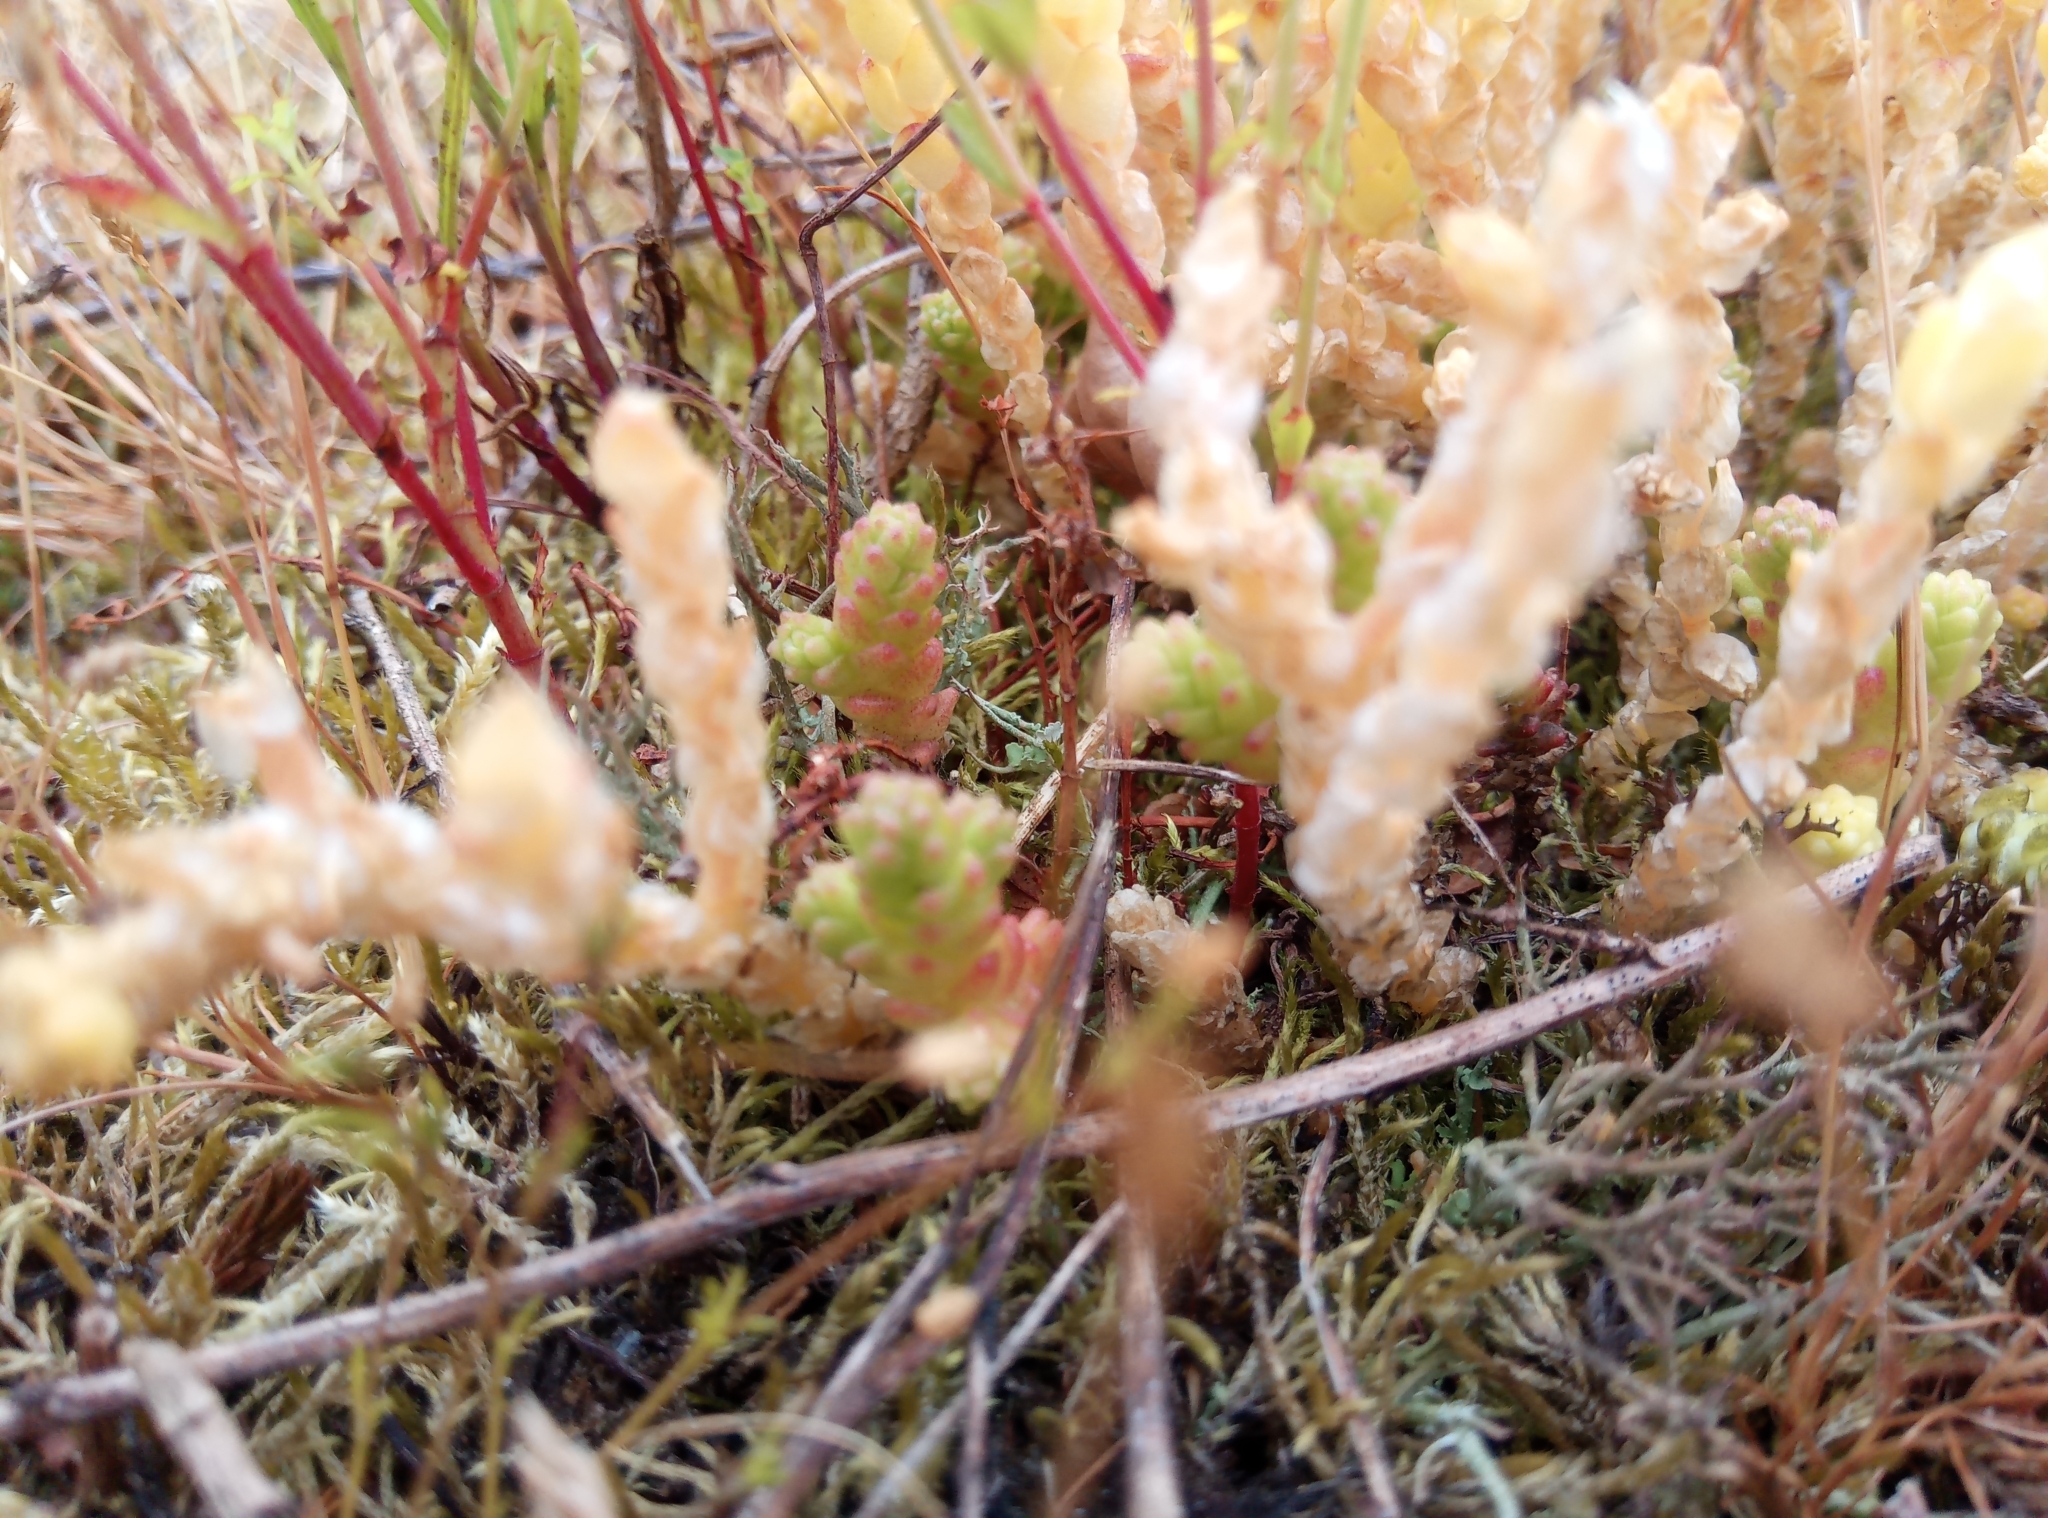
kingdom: Plantae
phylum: Tracheophyta
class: Magnoliopsida
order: Saxifragales
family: Crassulaceae
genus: Sedum
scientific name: Sedum acre
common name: Biting stonecrop
